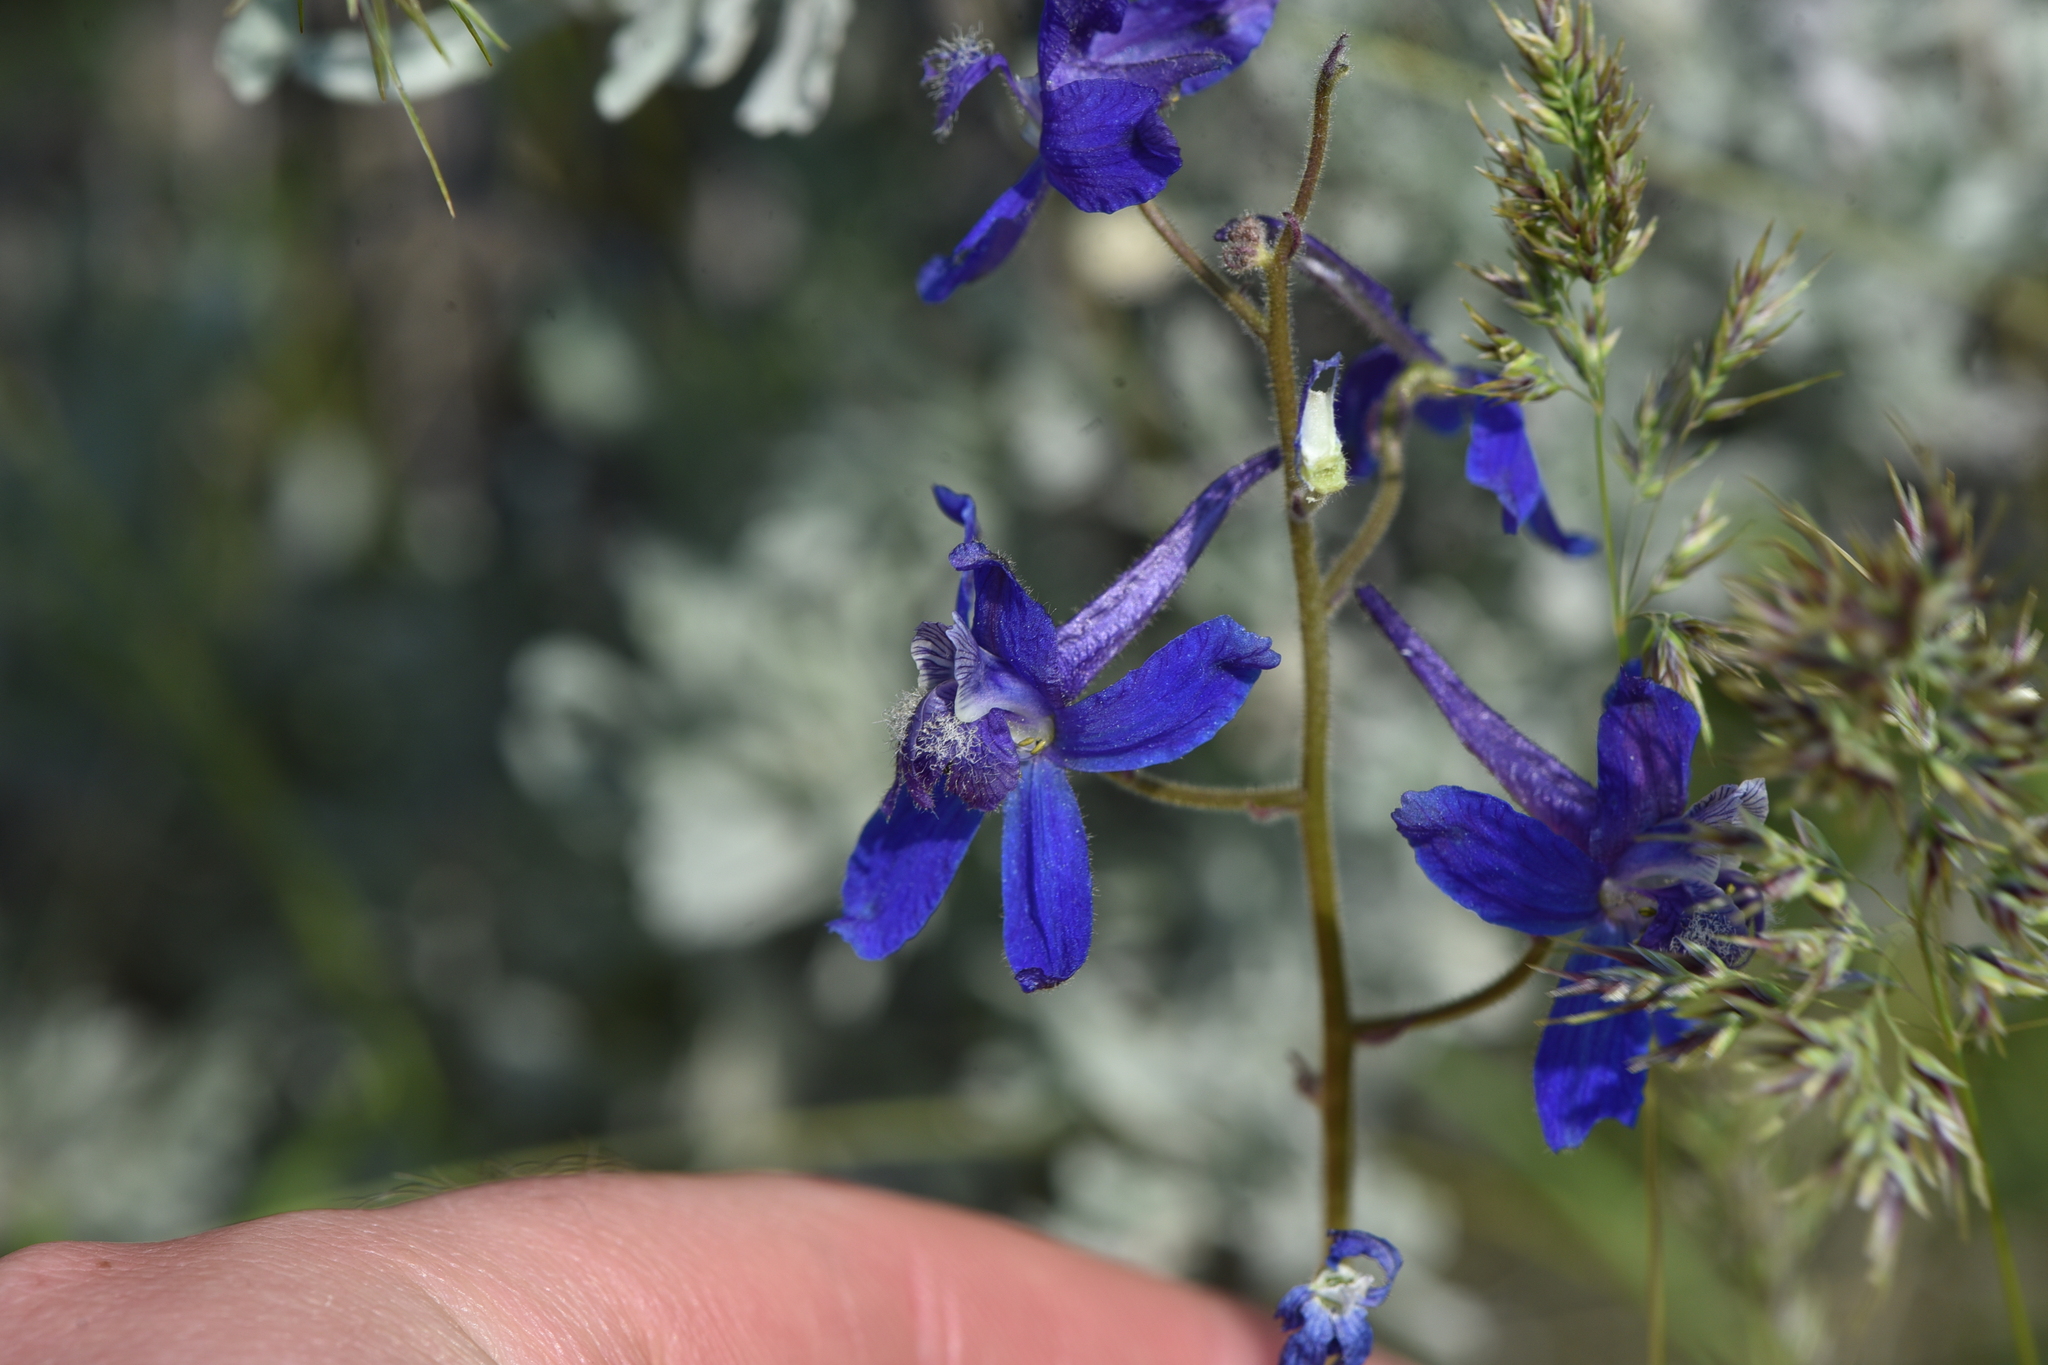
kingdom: Plantae
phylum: Tracheophyta
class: Magnoliopsida
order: Ranunculales
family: Ranunculaceae
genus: Delphinium
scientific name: Delphinium nuttallianum
